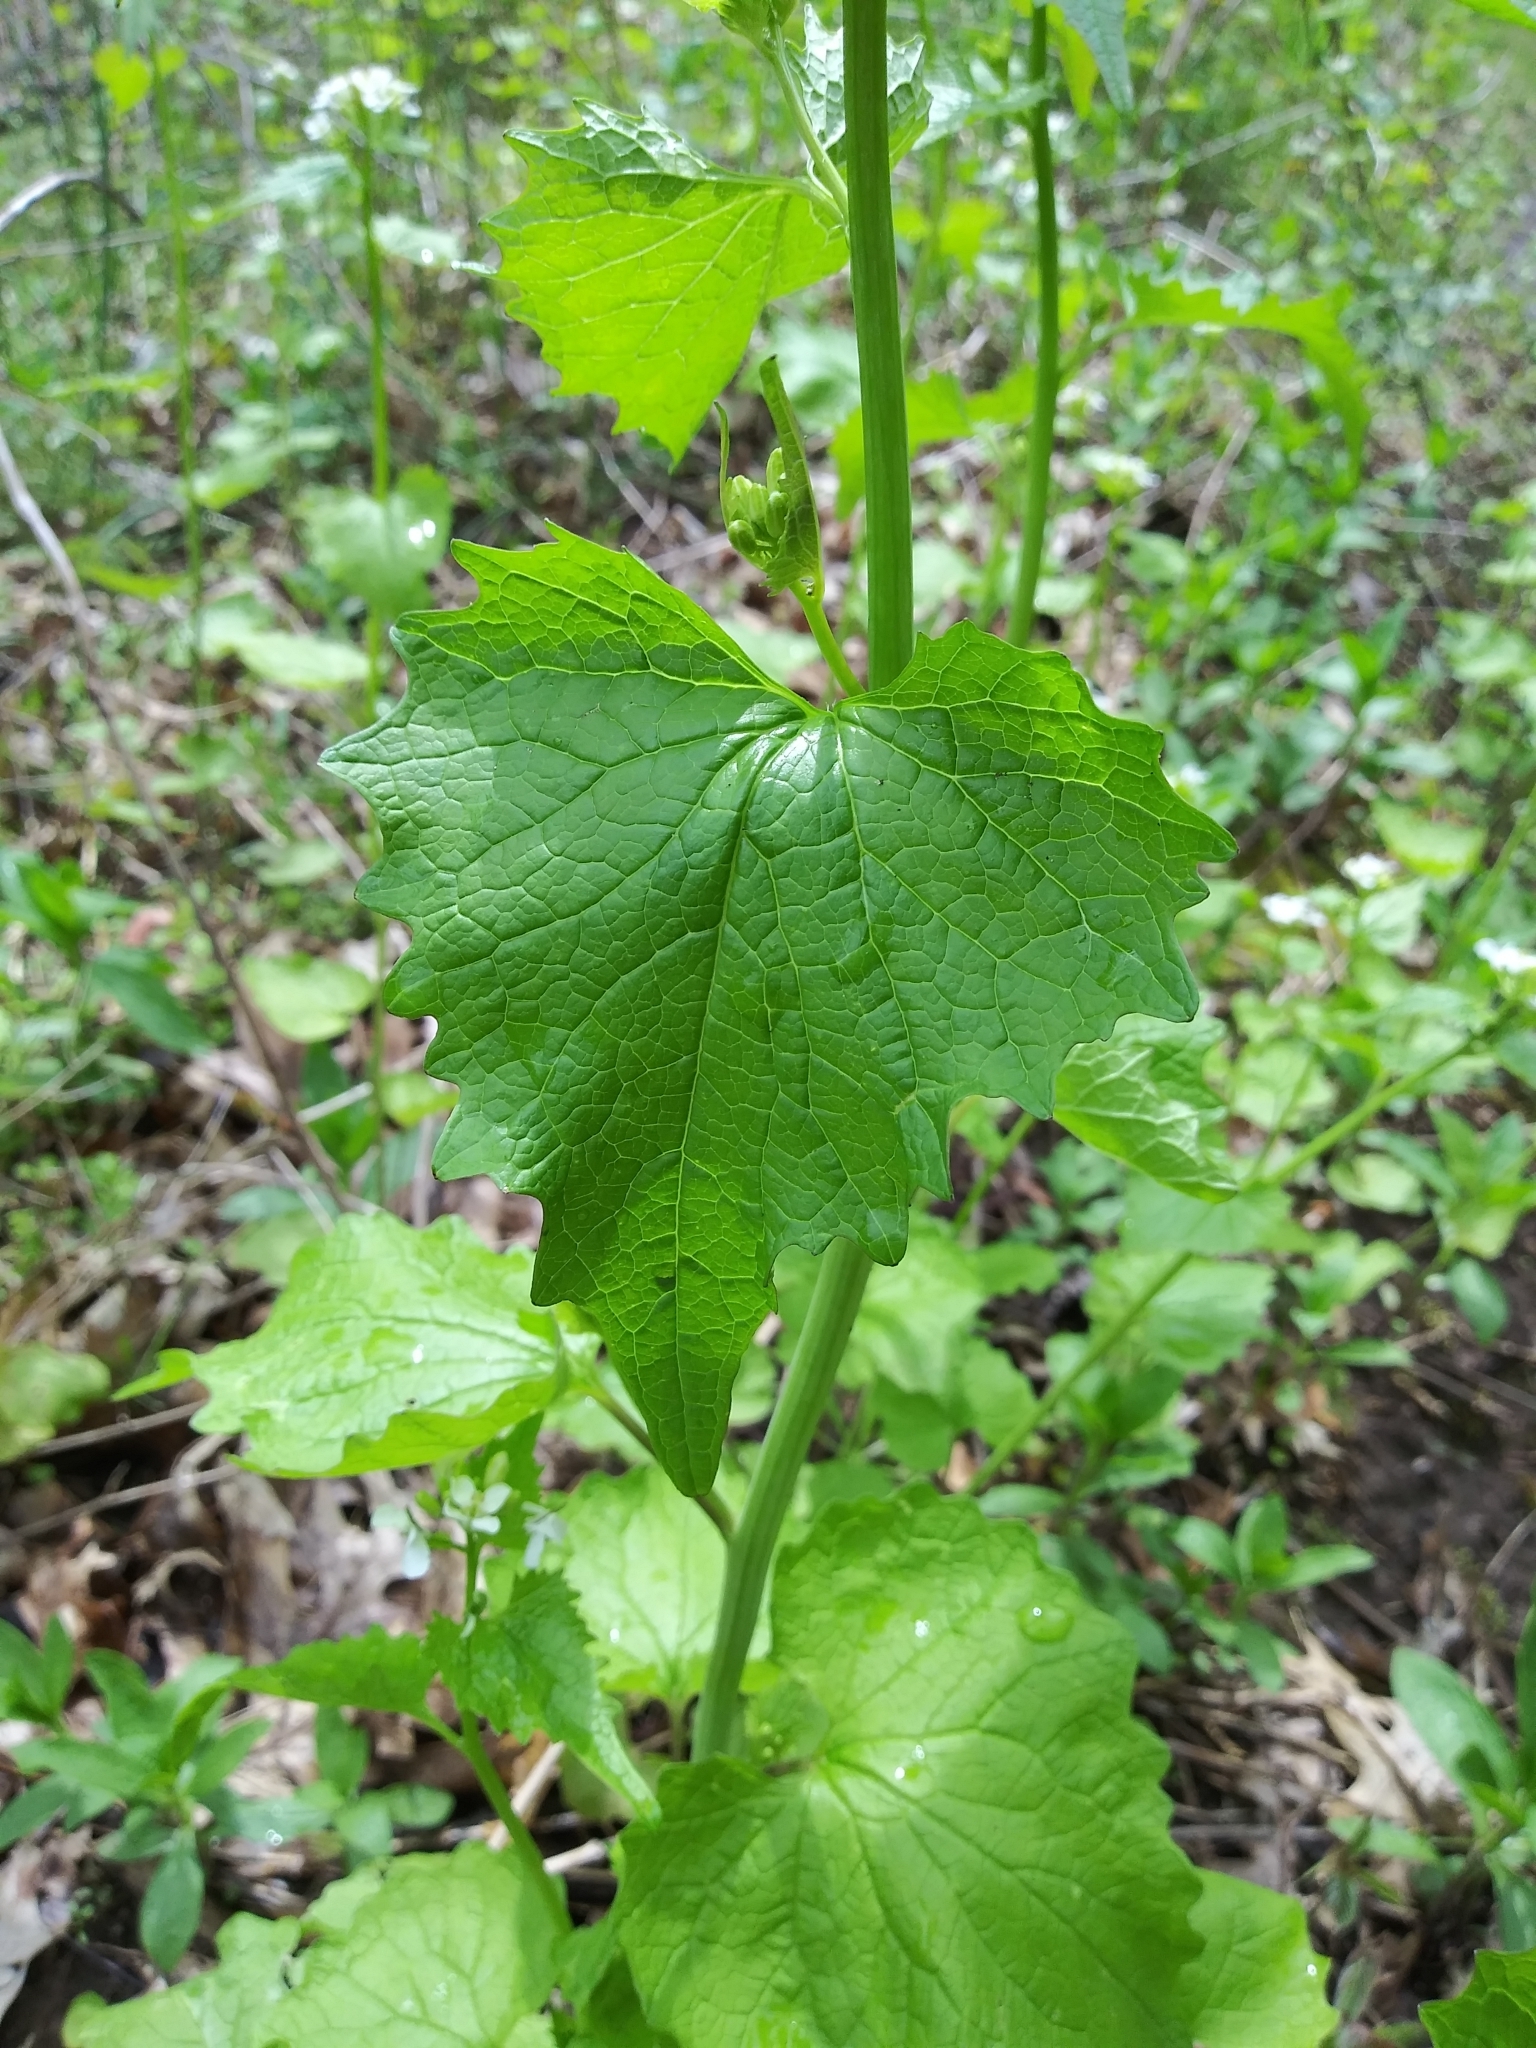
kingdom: Plantae
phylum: Tracheophyta
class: Magnoliopsida
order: Brassicales
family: Brassicaceae
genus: Alliaria
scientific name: Alliaria petiolata
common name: Garlic mustard
